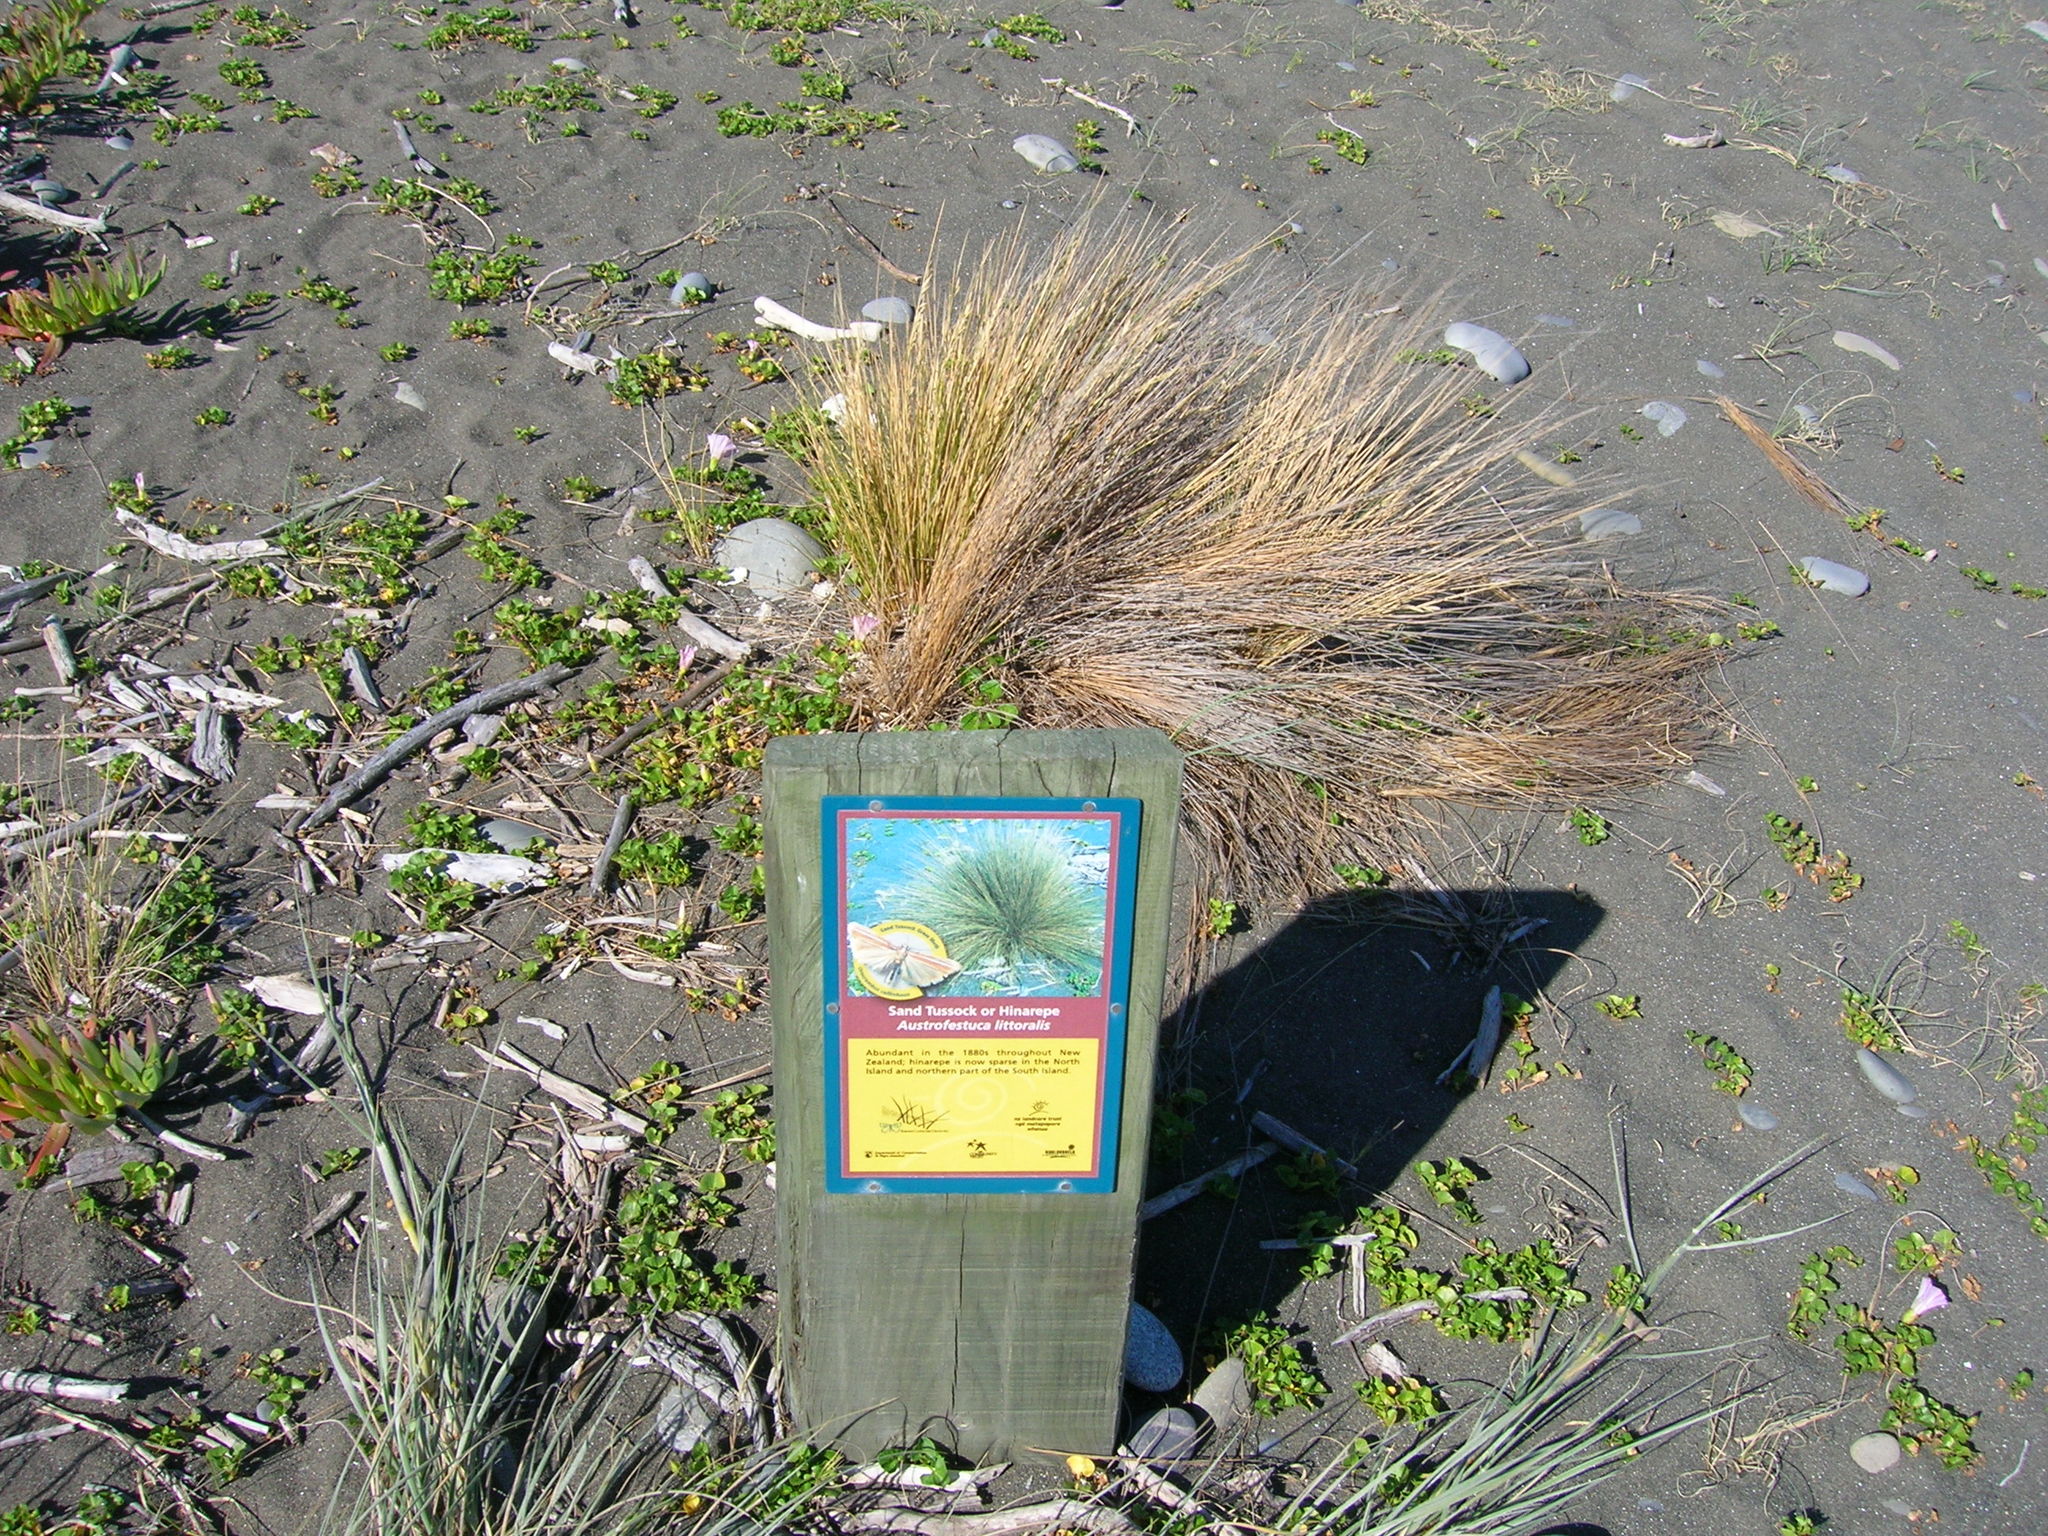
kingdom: Plantae
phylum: Tracheophyta
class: Liliopsida
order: Poales
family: Poaceae
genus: Poa
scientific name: Poa billardierei
